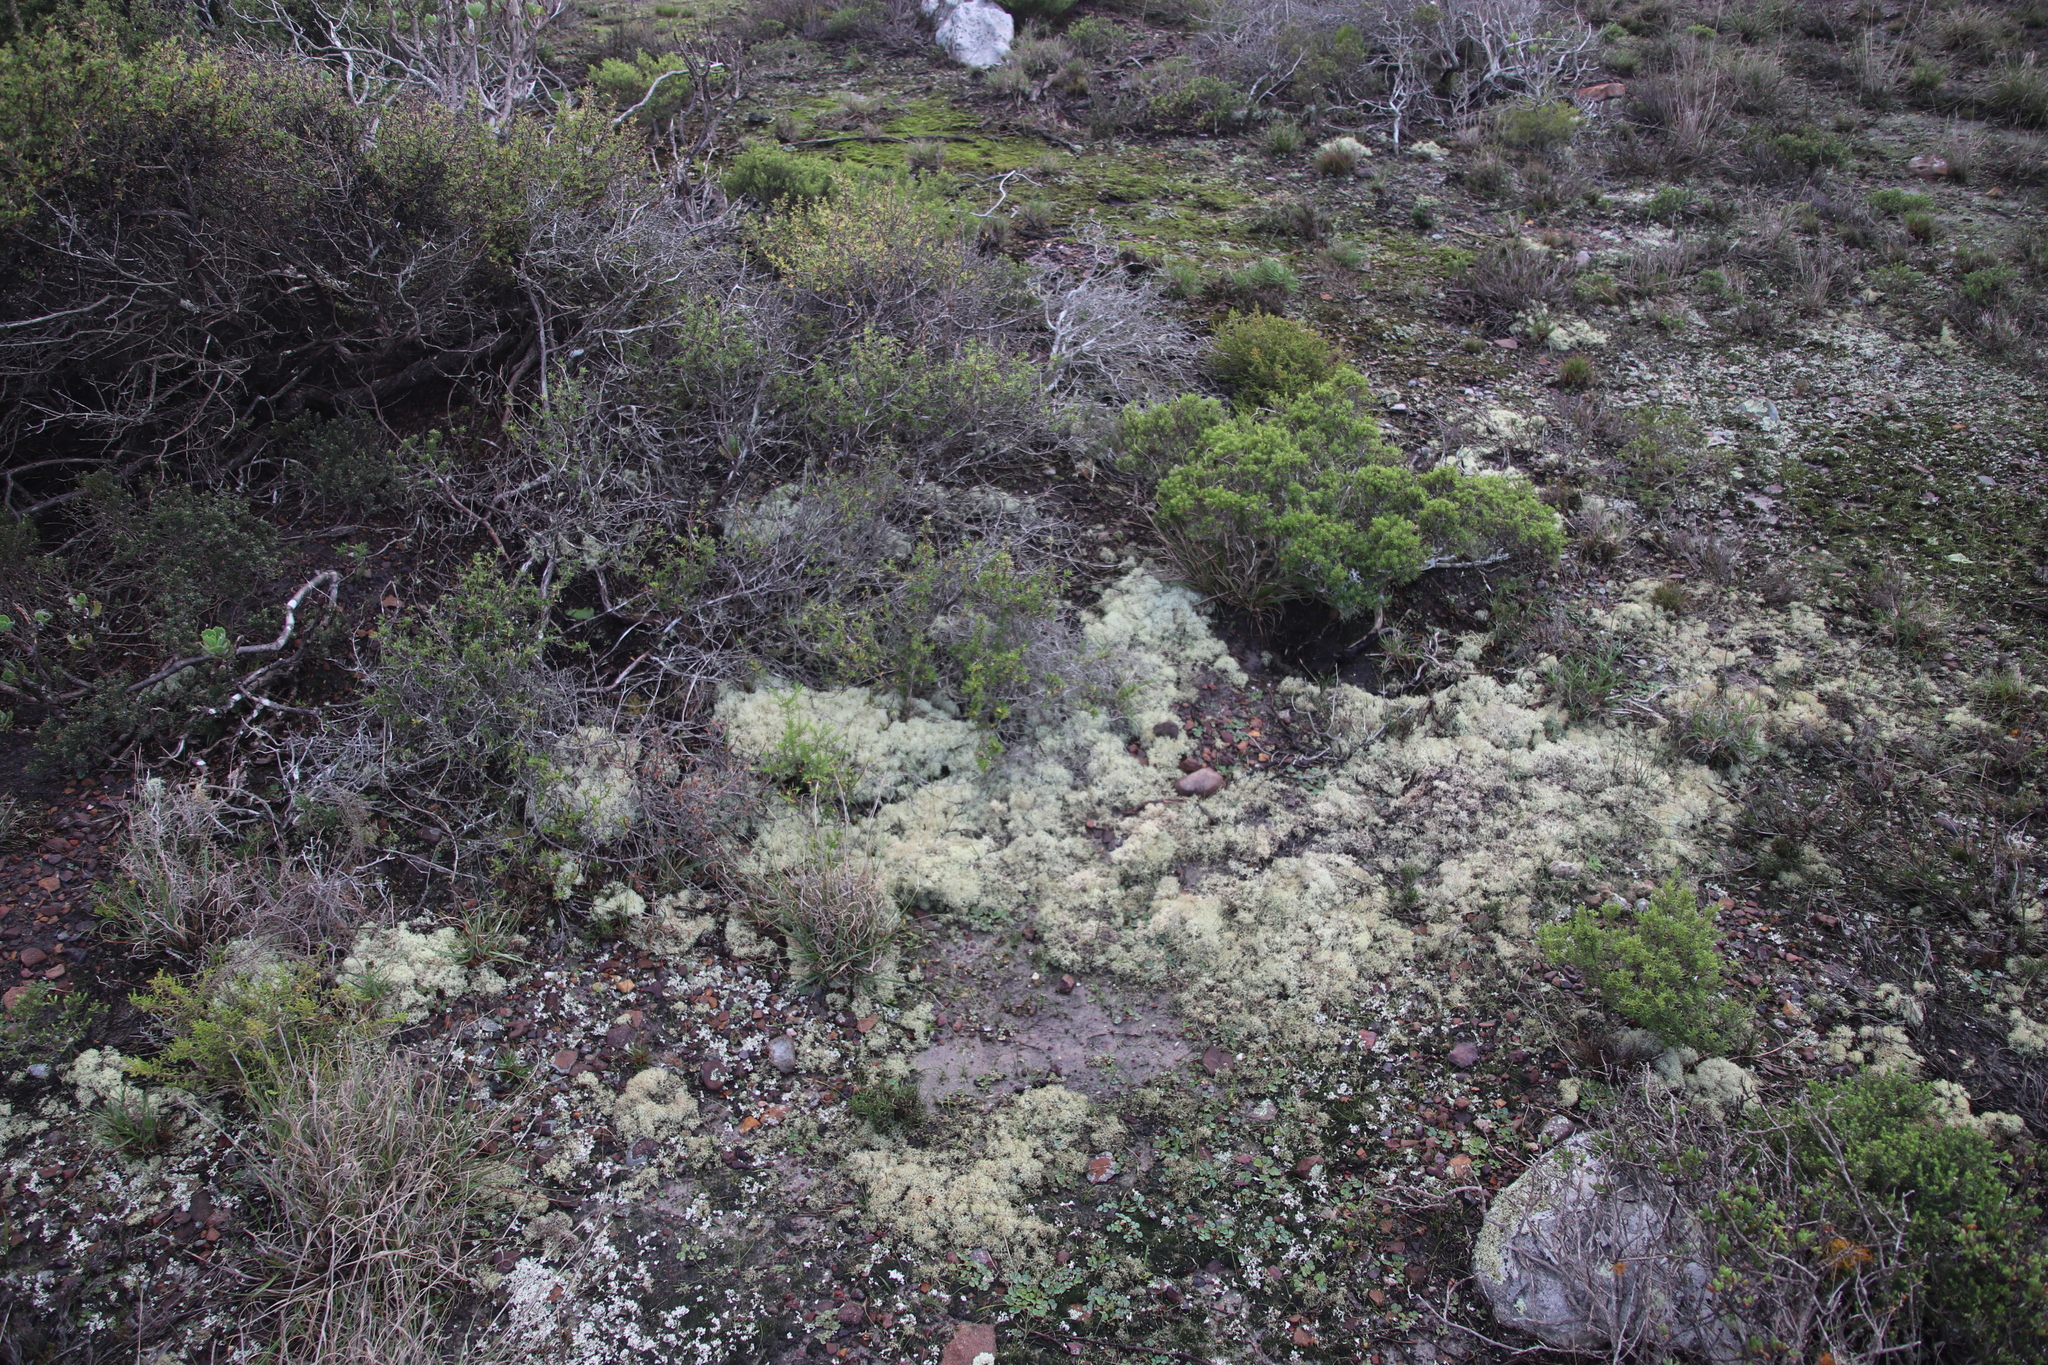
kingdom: Fungi
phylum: Ascomycota
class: Lecanoromycetes
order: Lecanorales
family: Cladoniaceae
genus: Cladonia
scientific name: Cladonia confusa
